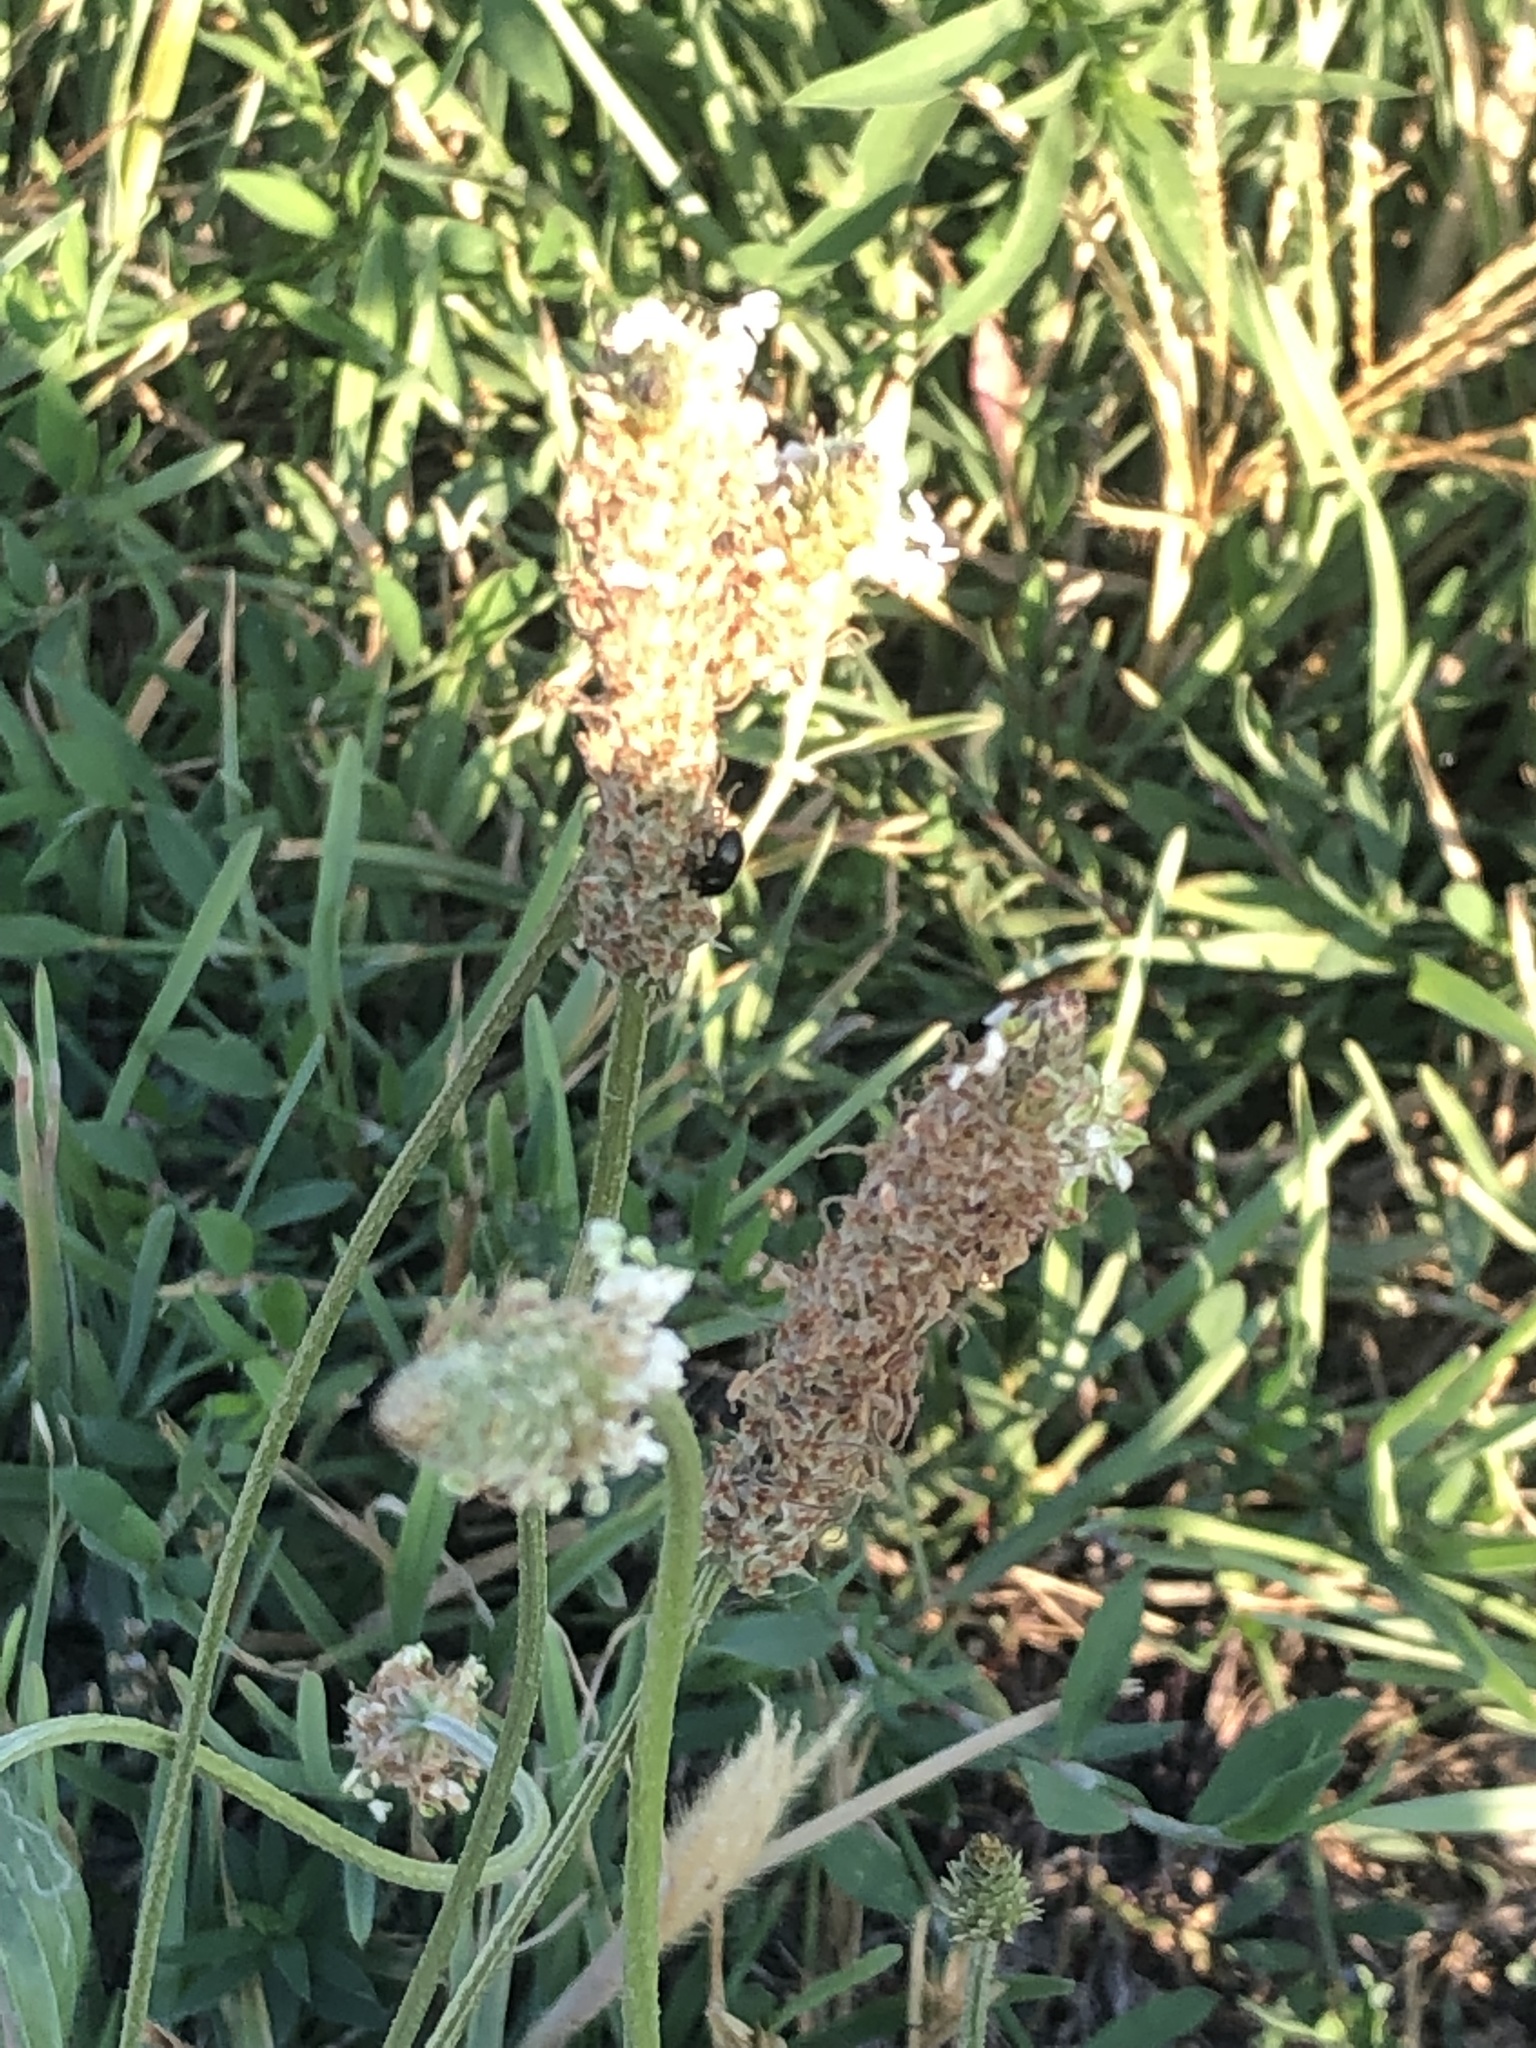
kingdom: Plantae
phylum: Tracheophyta
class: Magnoliopsida
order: Lamiales
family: Plantaginaceae
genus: Plantago
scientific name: Plantago lanceolata
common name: Ribwort plantain
